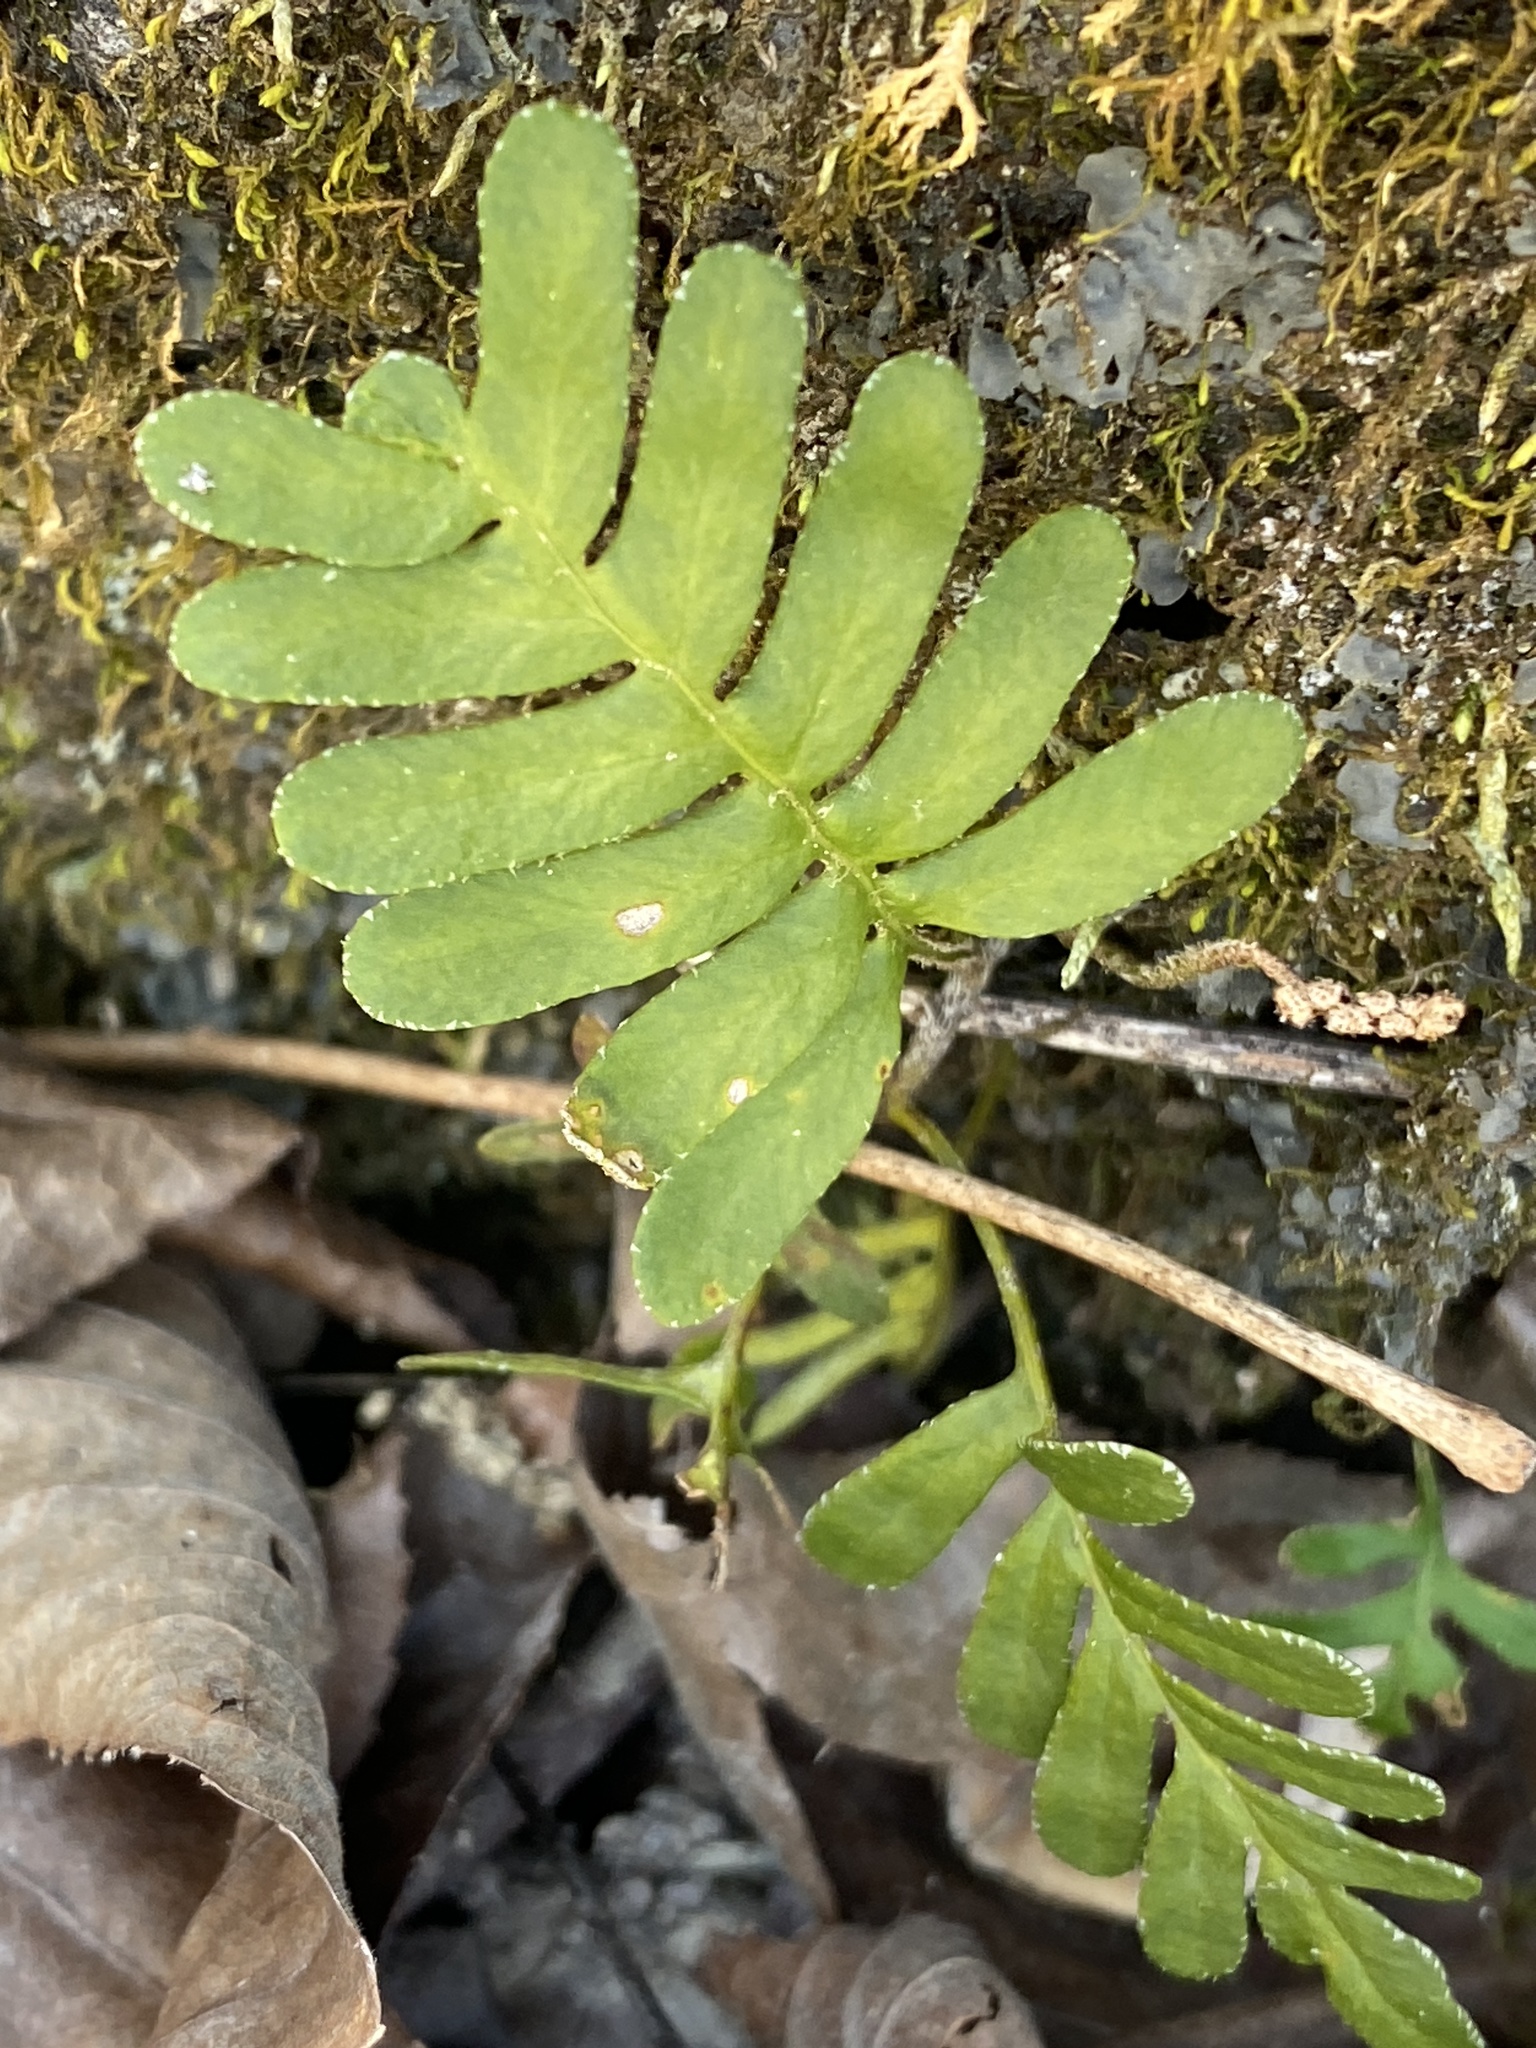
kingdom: Plantae
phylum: Tracheophyta
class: Polypodiopsida
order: Polypodiales
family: Polypodiaceae
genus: Pleopeltis
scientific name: Pleopeltis michauxiana
